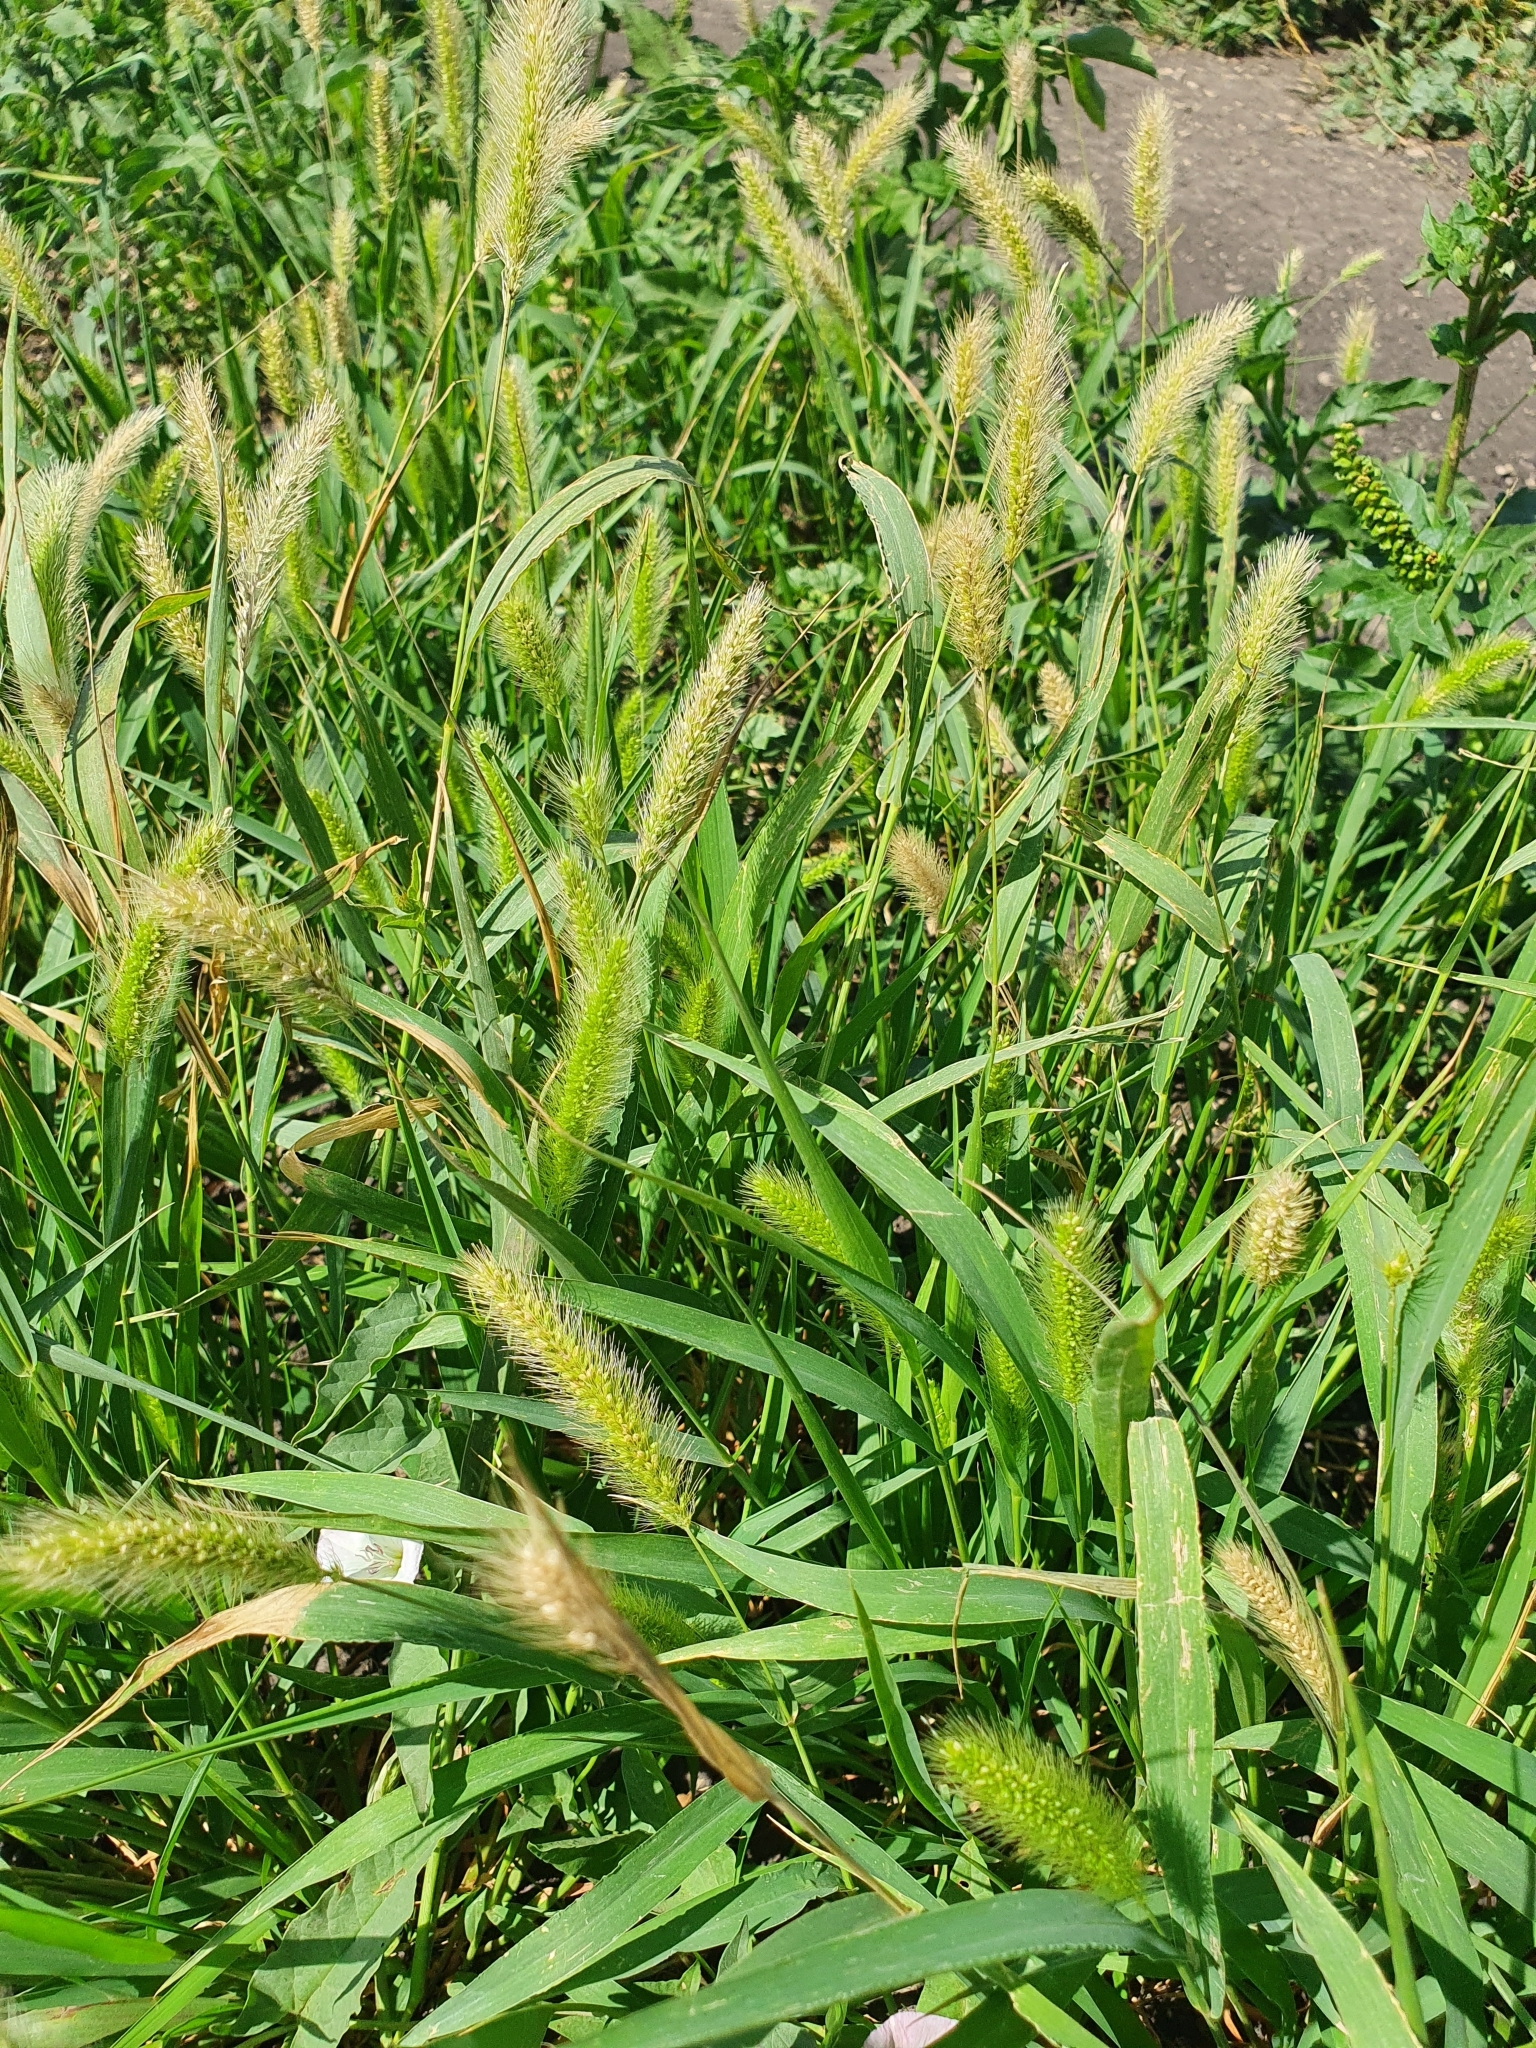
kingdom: Plantae
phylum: Tracheophyta
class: Liliopsida
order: Poales
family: Poaceae
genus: Setaria
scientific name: Setaria viridis
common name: Green bristlegrass
